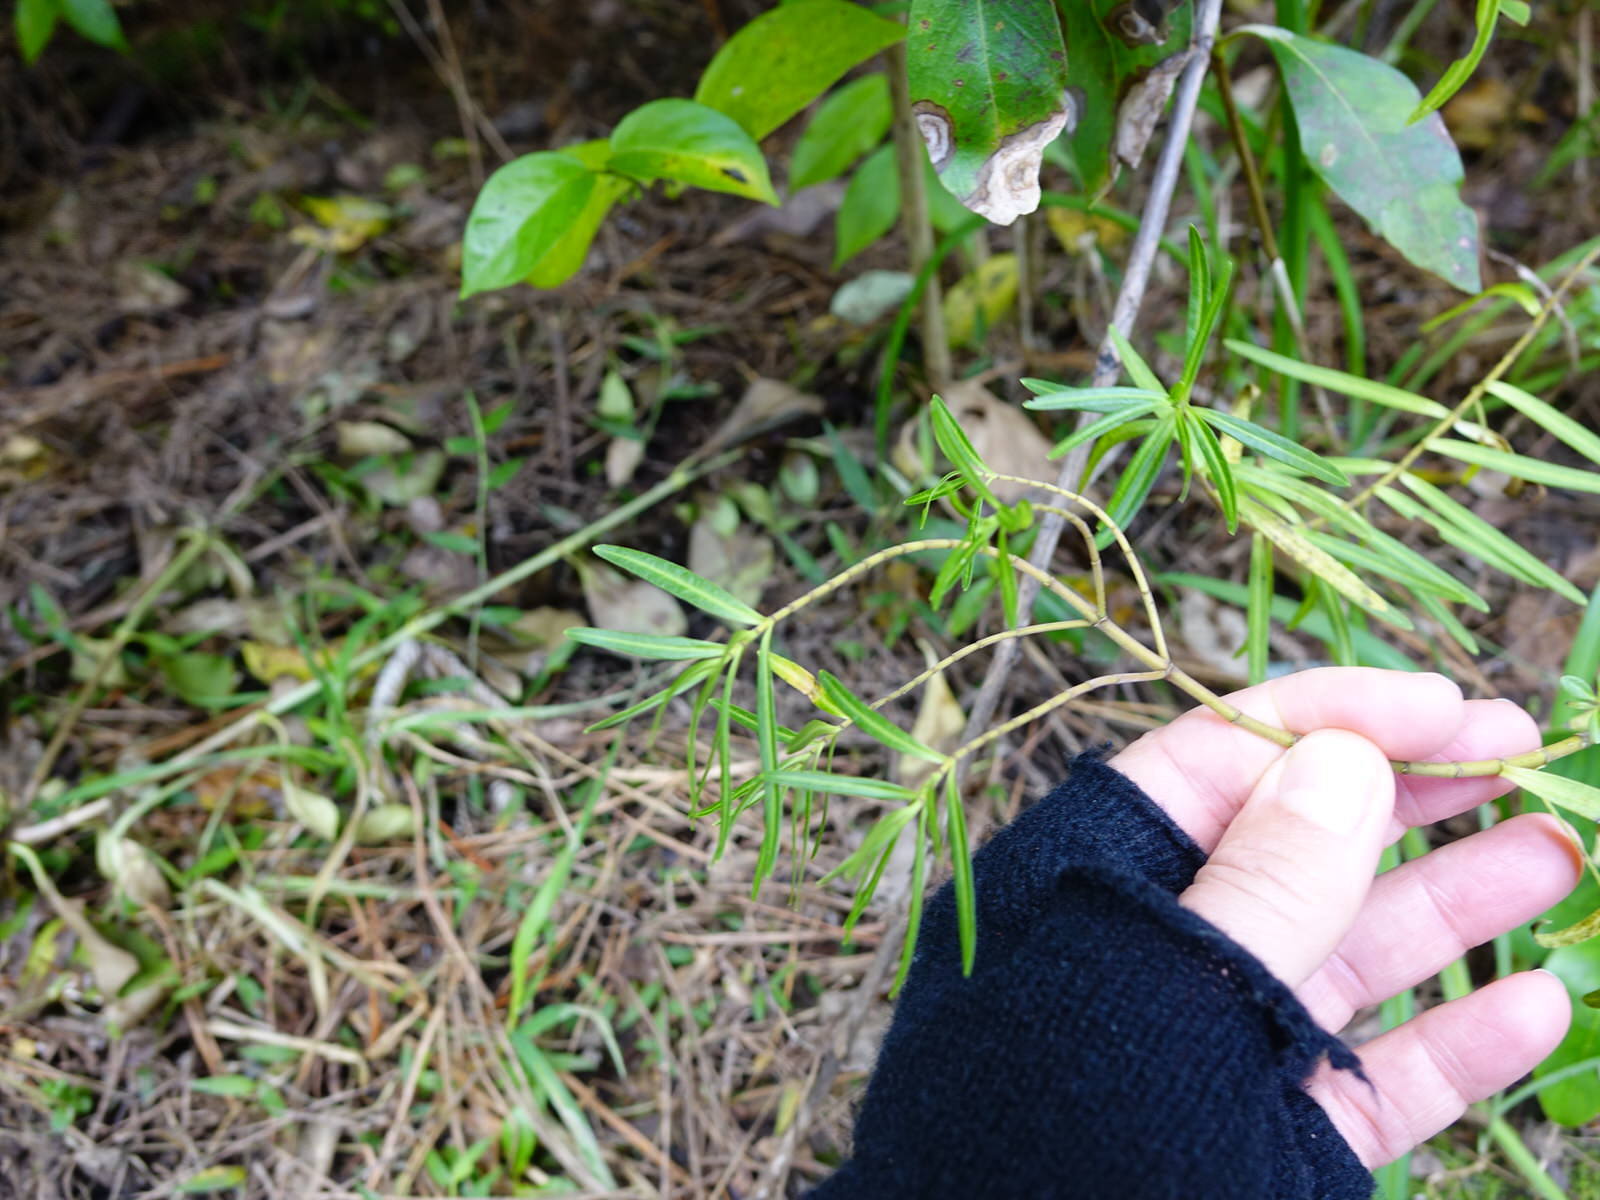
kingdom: Plantae
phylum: Tracheophyta
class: Magnoliopsida
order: Lamiales
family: Plantaginaceae
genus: Veronica
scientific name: Veronica parviflora
